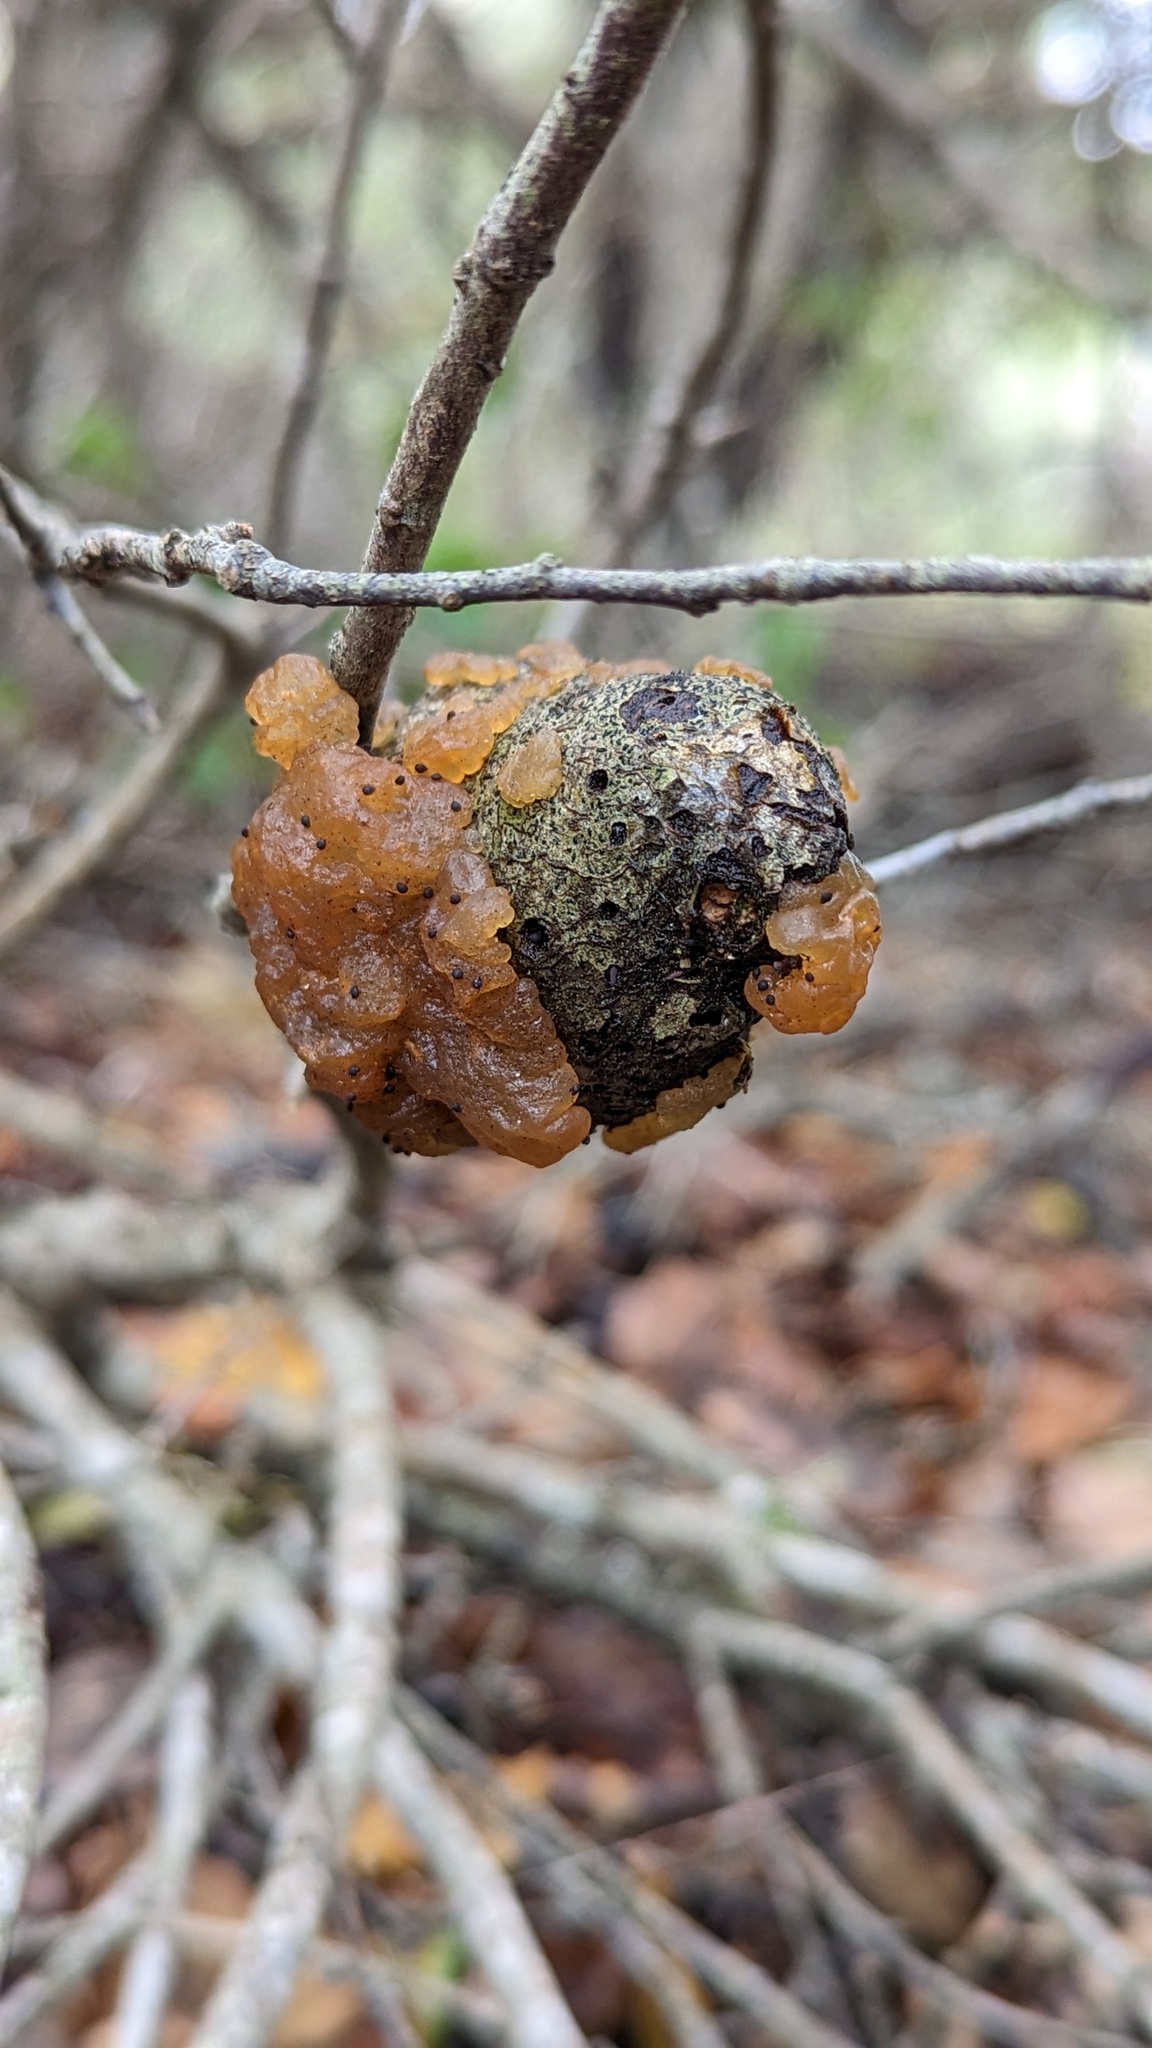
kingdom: Fungi
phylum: Basidiomycota
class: Agaricomycetes
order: Auriculariales
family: Hyaloriaceae
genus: Myxarium
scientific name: Myxarium nucleatum
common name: Crystal brain fungus
